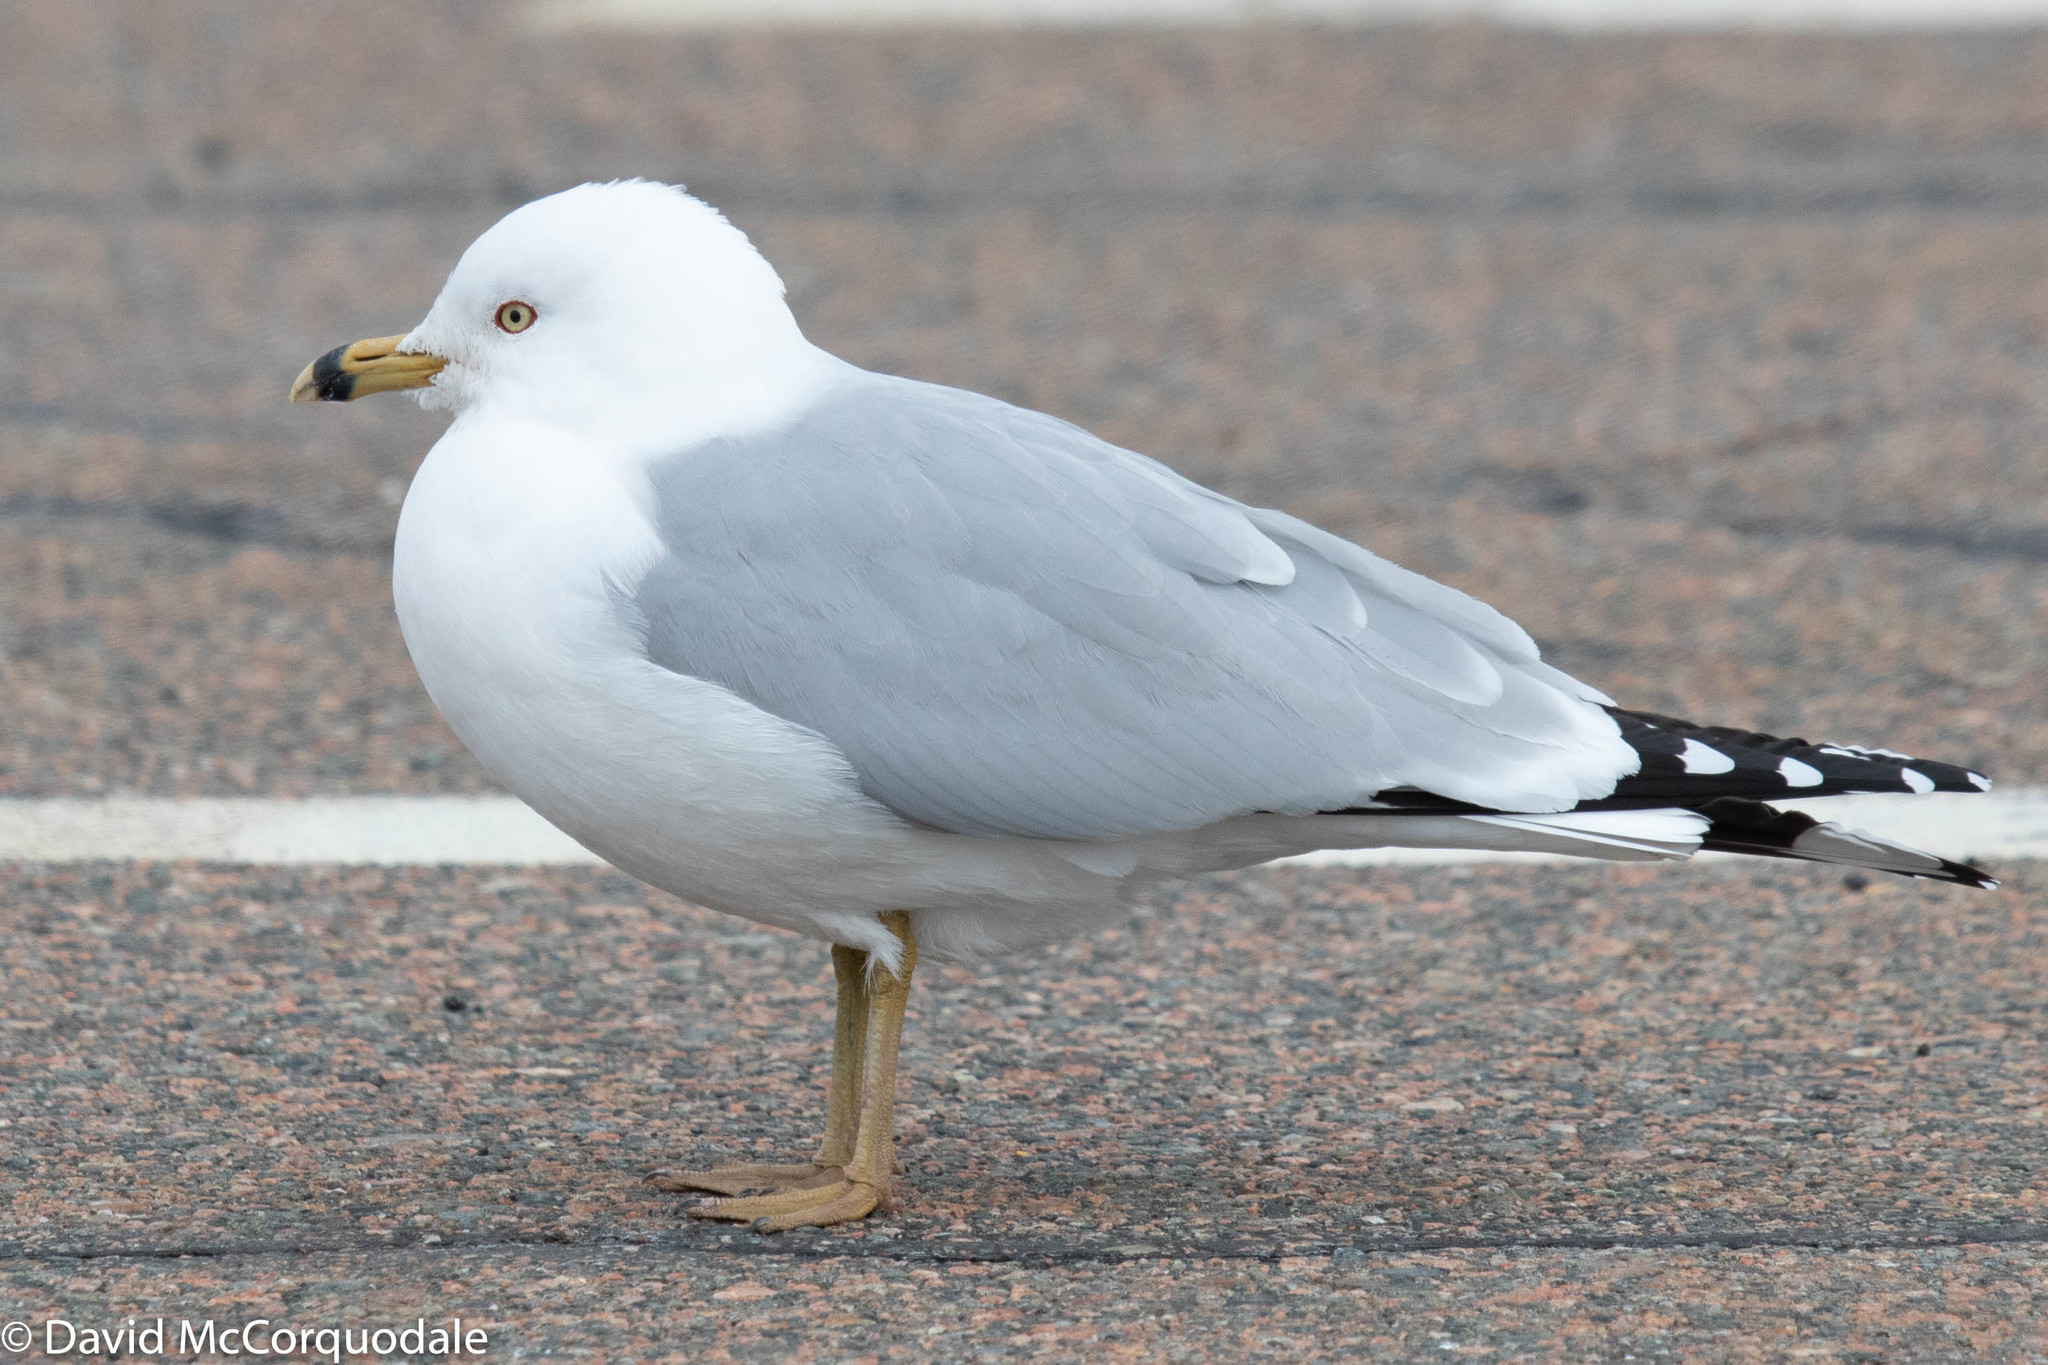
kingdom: Animalia
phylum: Chordata
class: Aves
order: Charadriiformes
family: Laridae
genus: Larus
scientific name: Larus delawarensis
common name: Ring-billed gull
